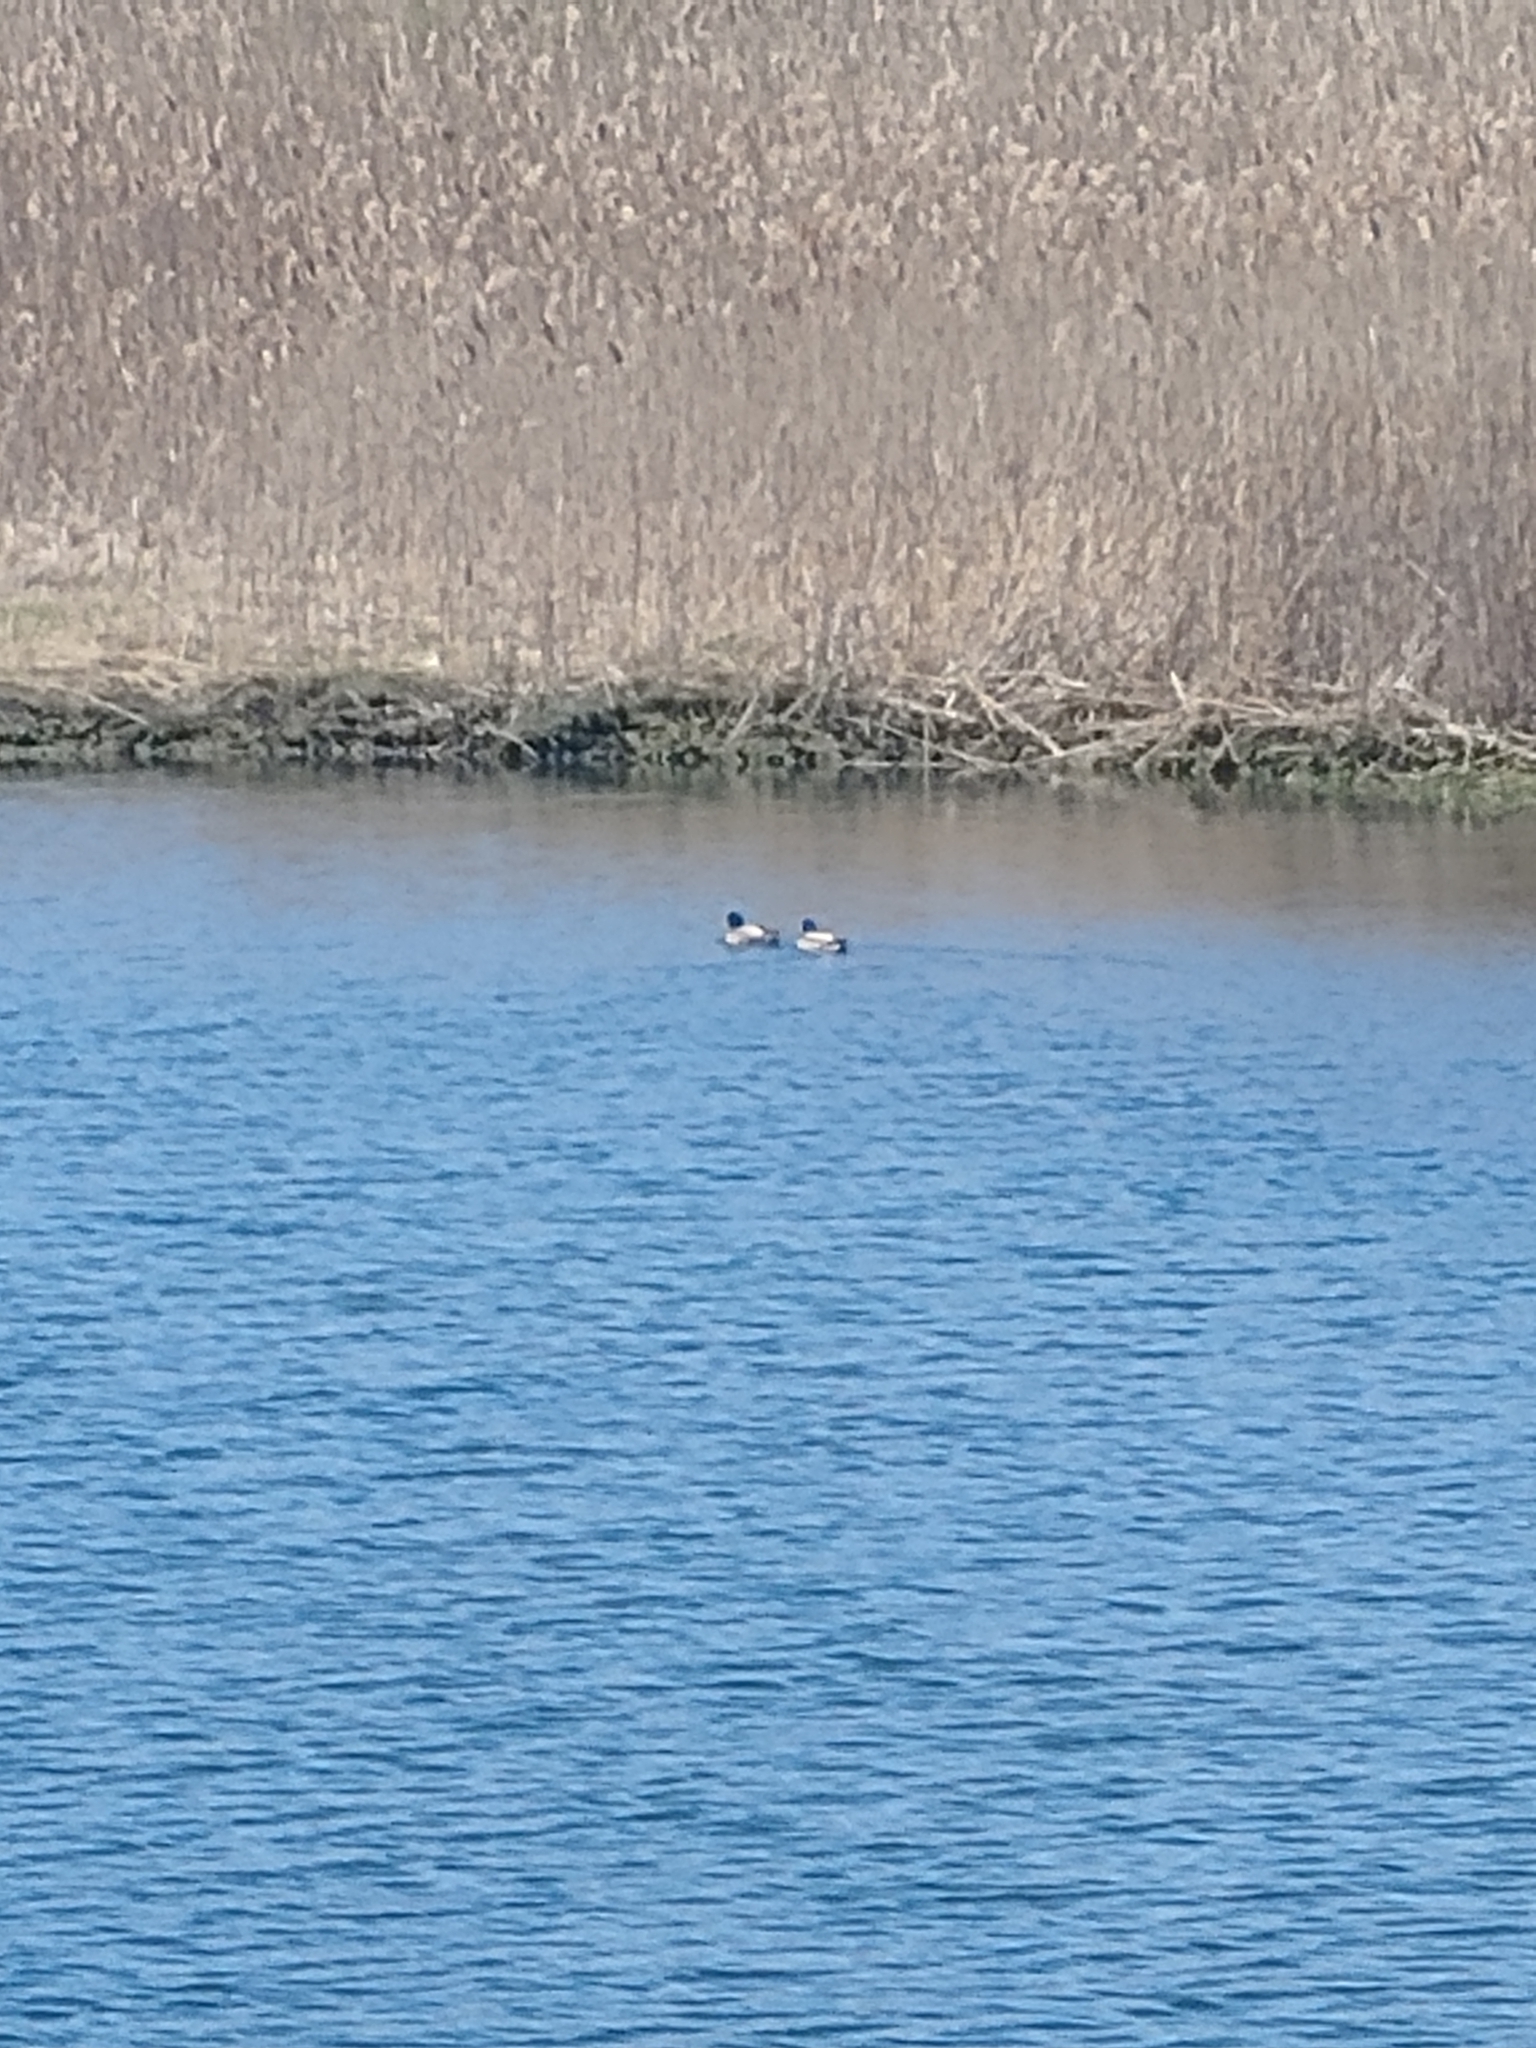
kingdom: Animalia
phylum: Chordata
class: Aves
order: Anseriformes
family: Anatidae
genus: Anas
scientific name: Anas platyrhynchos
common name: Mallard
